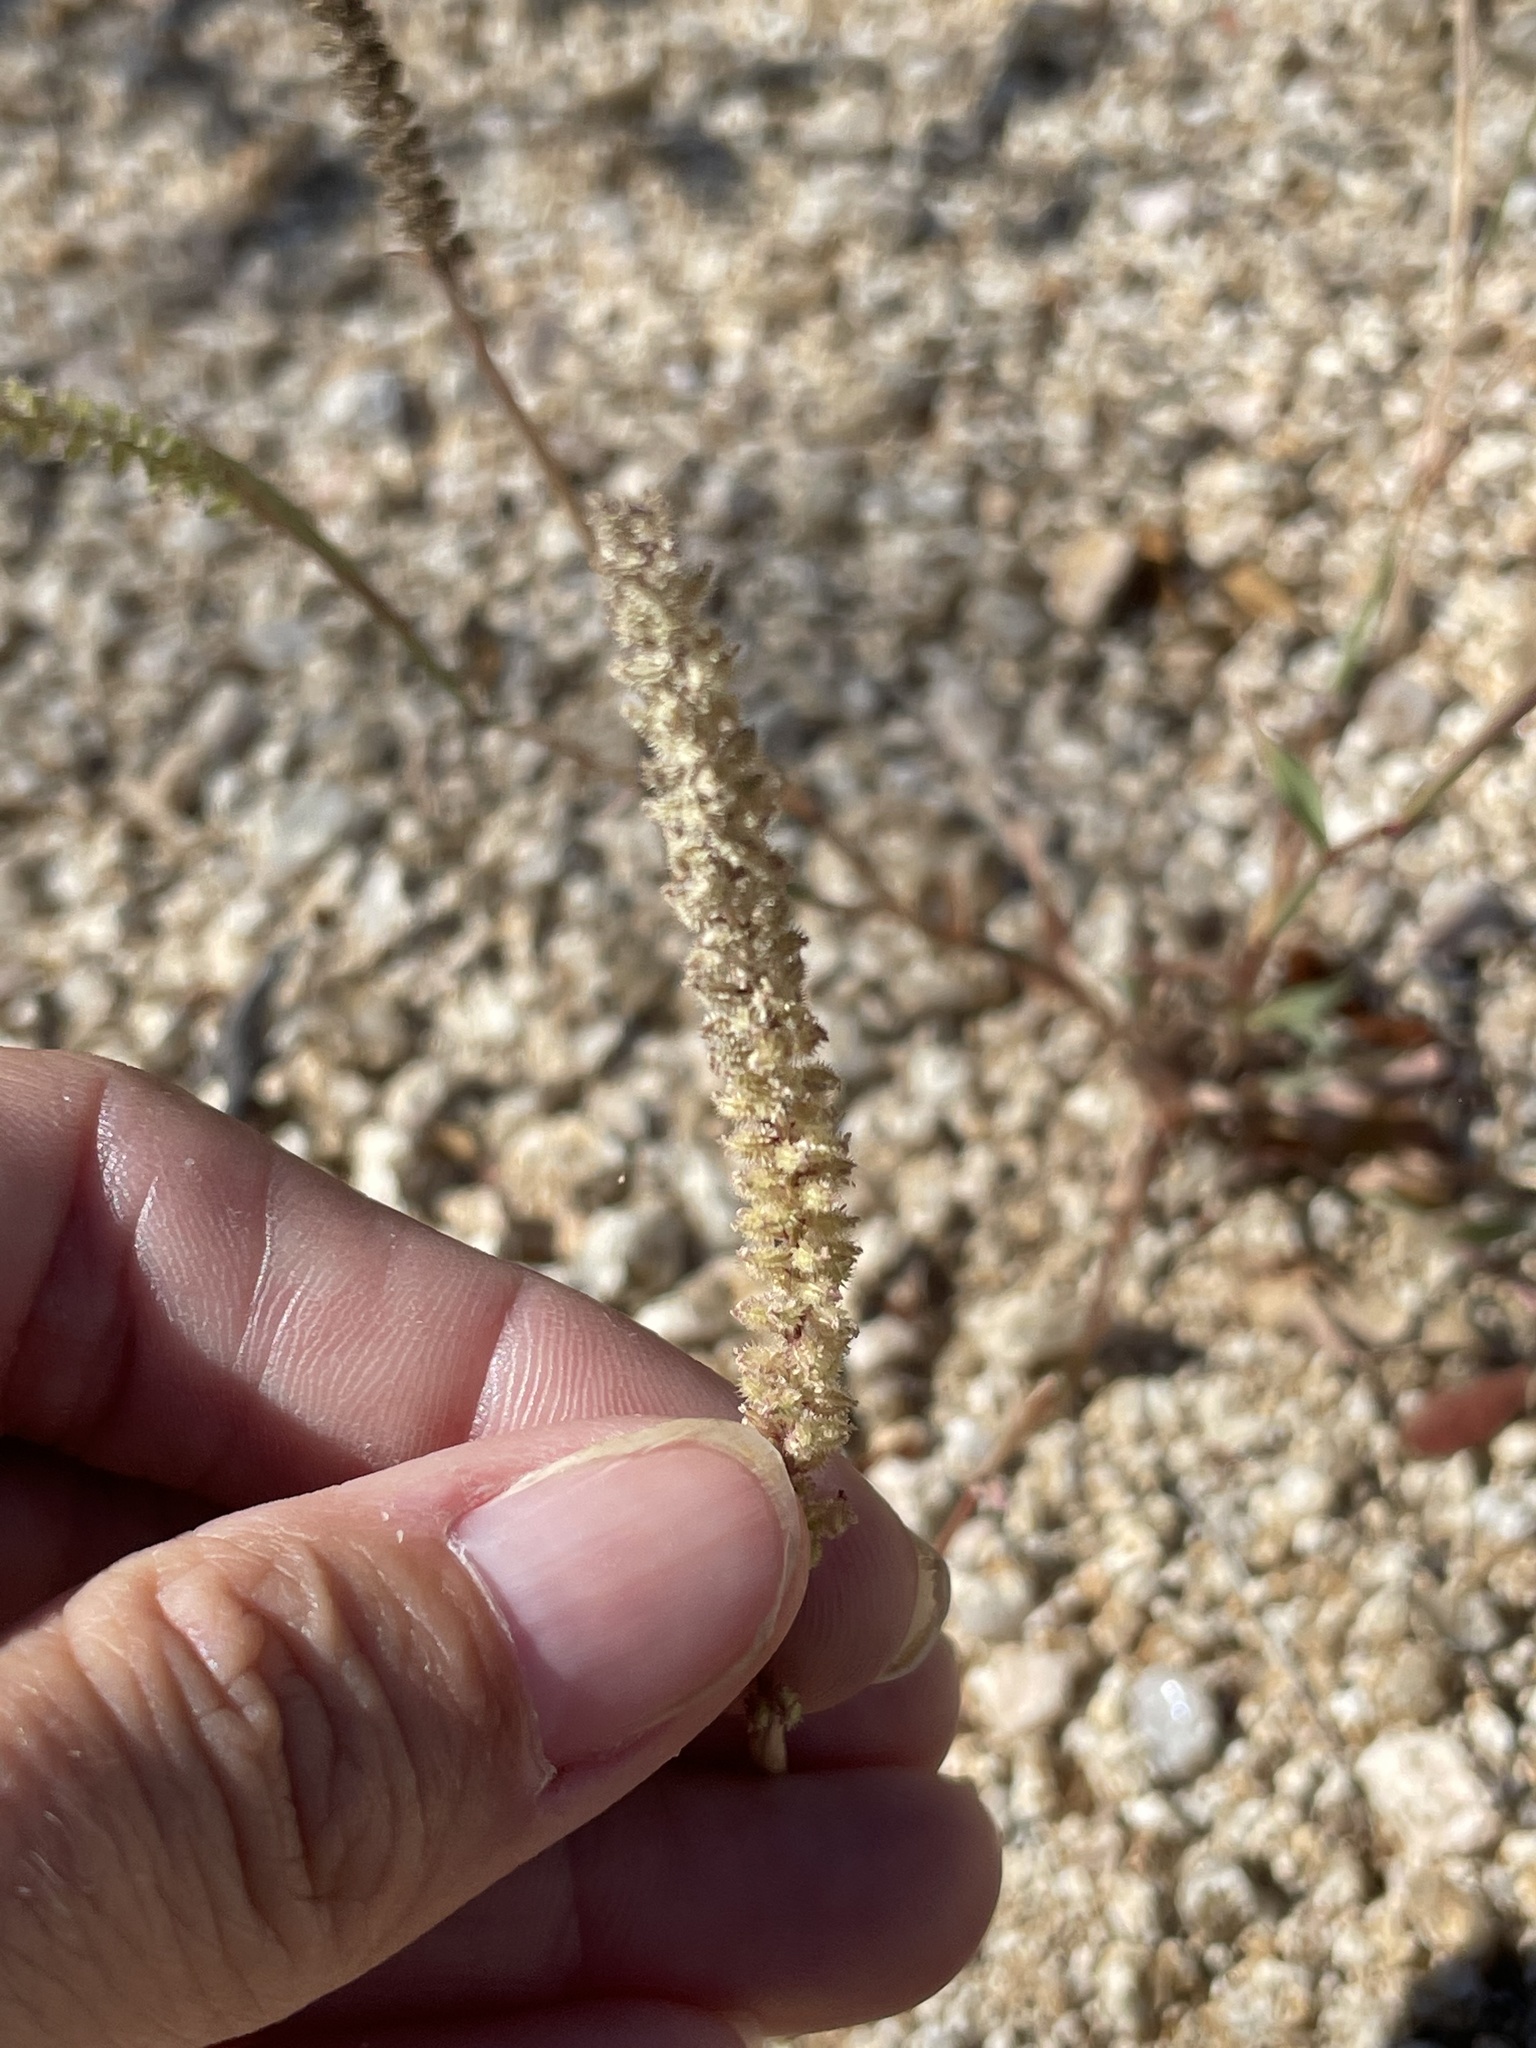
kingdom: Plantae
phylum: Tracheophyta
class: Liliopsida
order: Poales
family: Poaceae
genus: Tragus
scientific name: Tragus berteronianus
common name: African bur-grass
